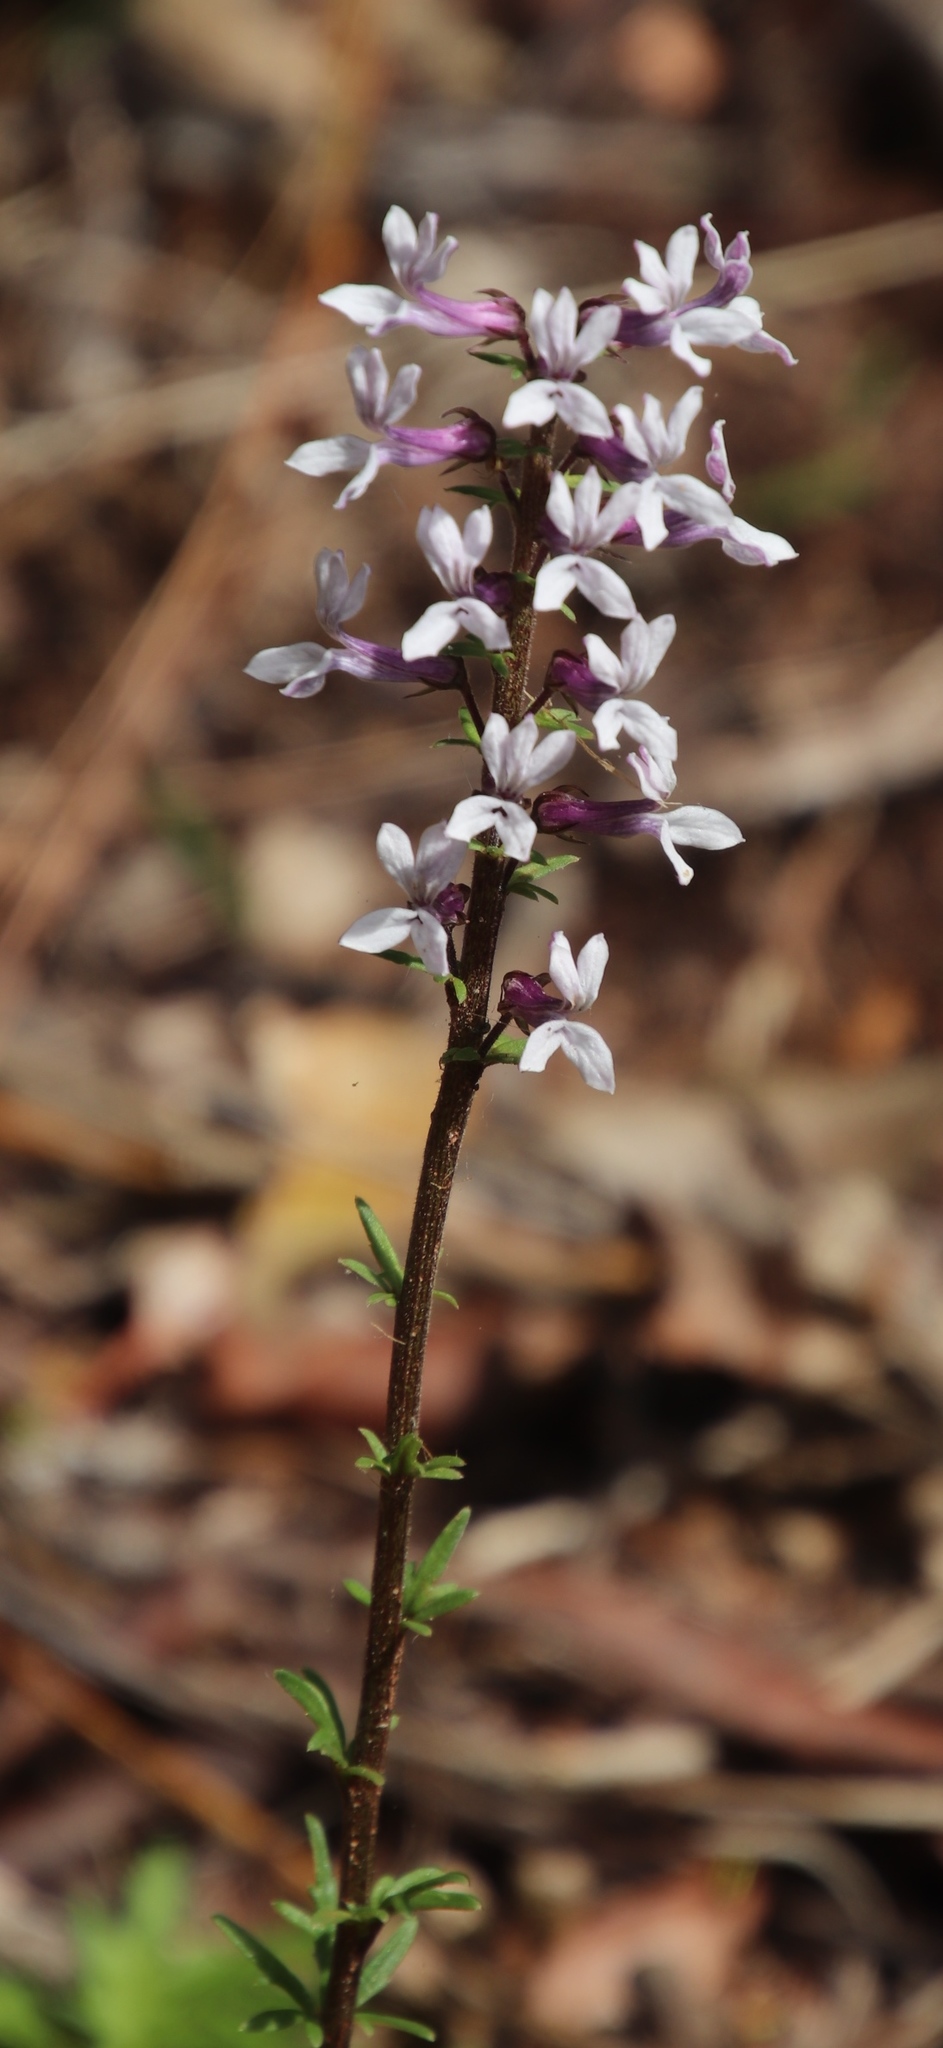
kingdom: Plantae
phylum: Tracheophyta
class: Magnoliopsida
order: Asterales
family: Campanulaceae
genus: Cyphia
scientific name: Cyphia bulbosa
